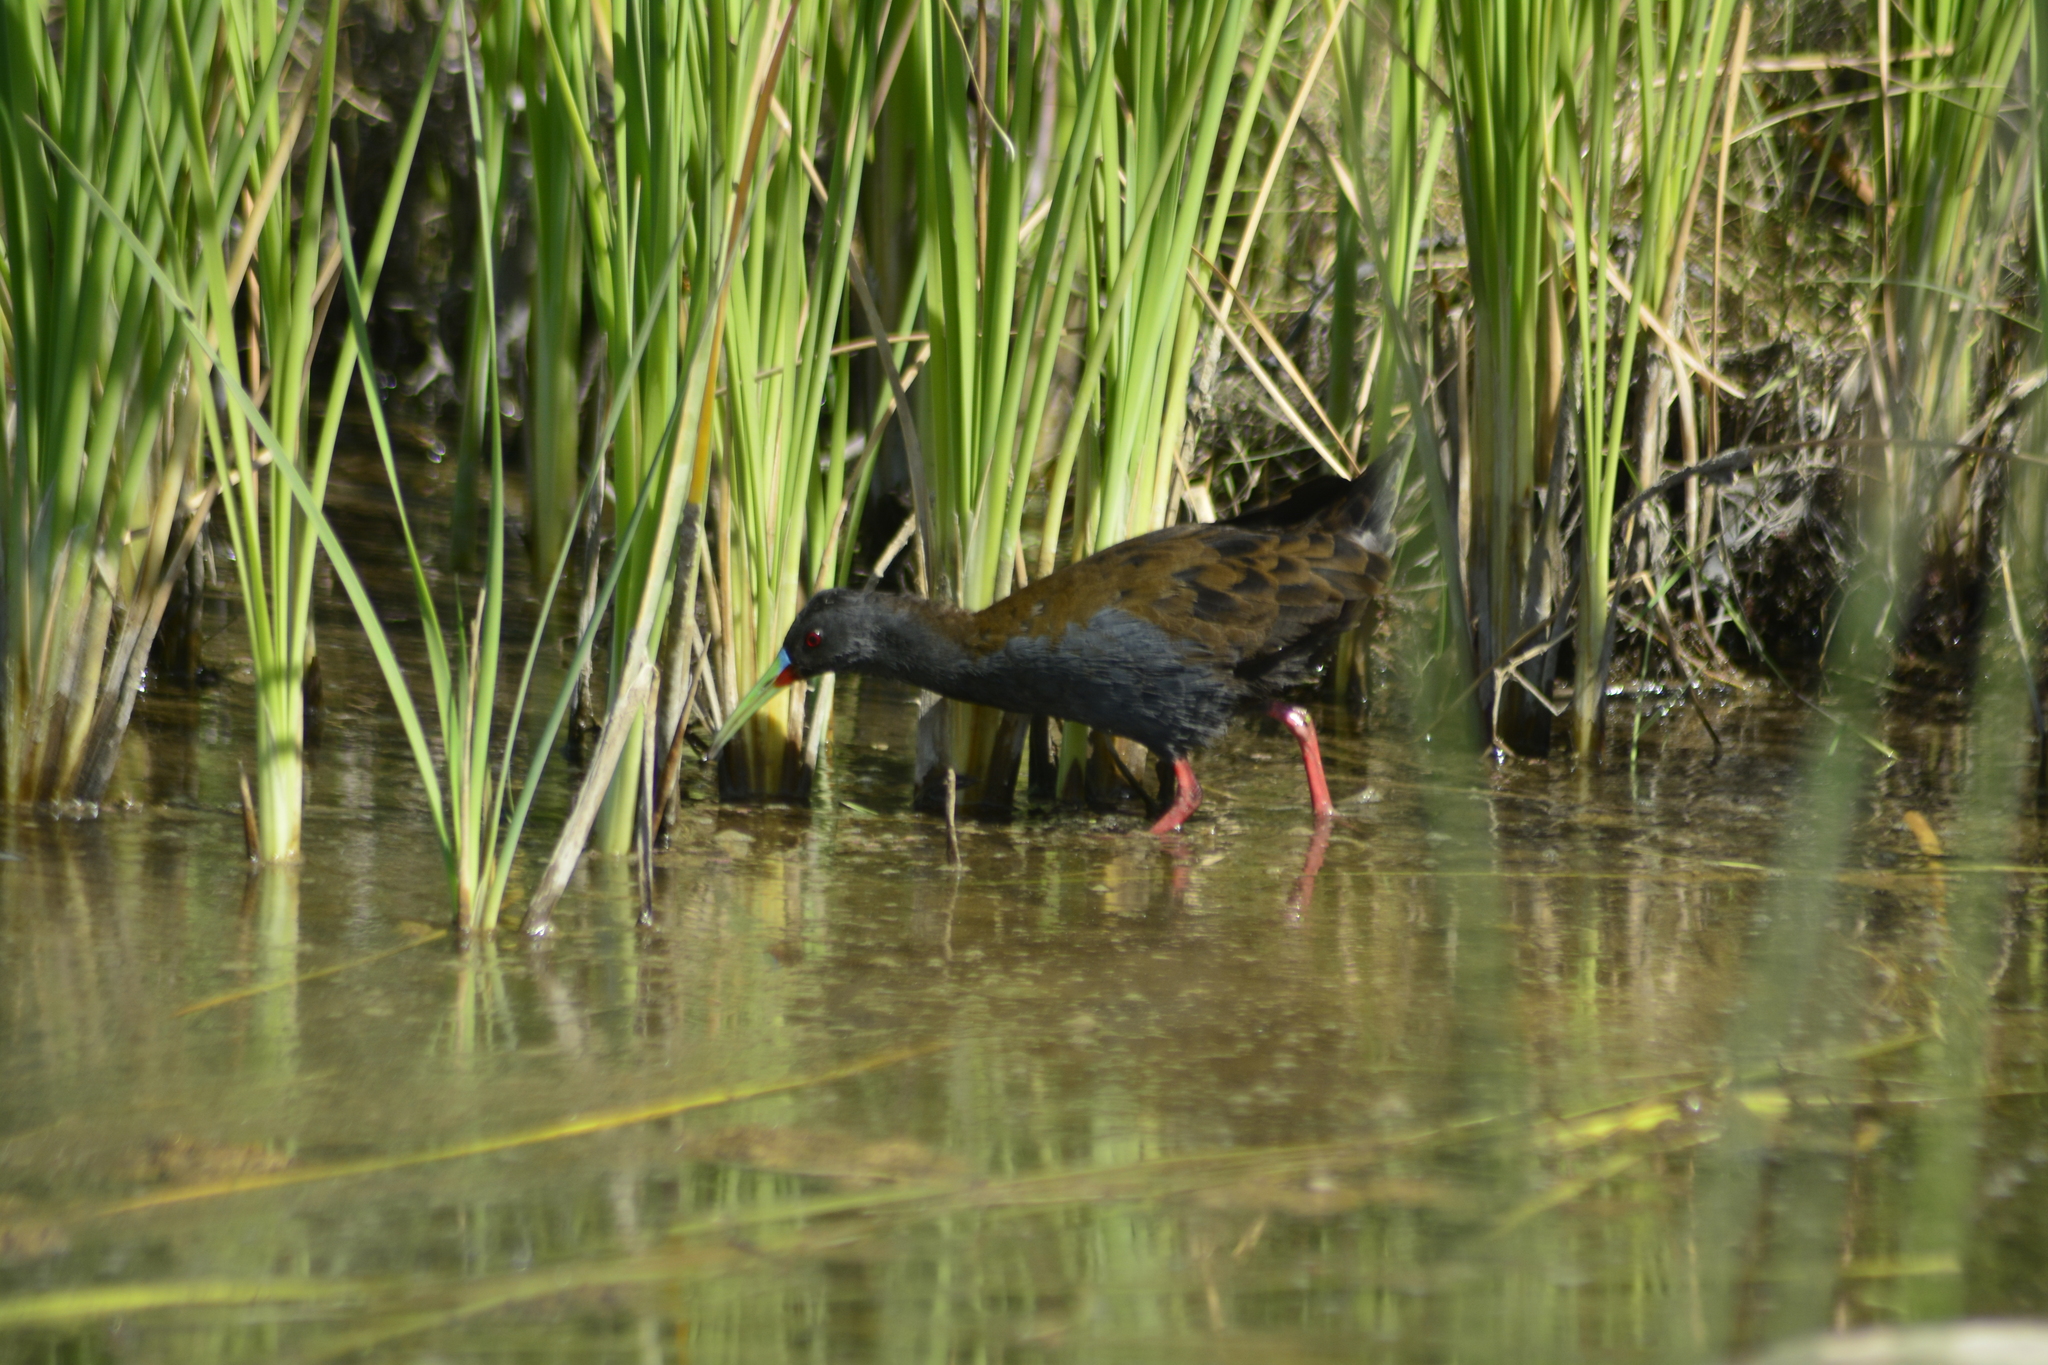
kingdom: Animalia
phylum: Chordata
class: Aves
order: Gruiformes
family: Rallidae
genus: Pardirallus
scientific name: Pardirallus sanguinolentus
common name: Plumbeous rail
